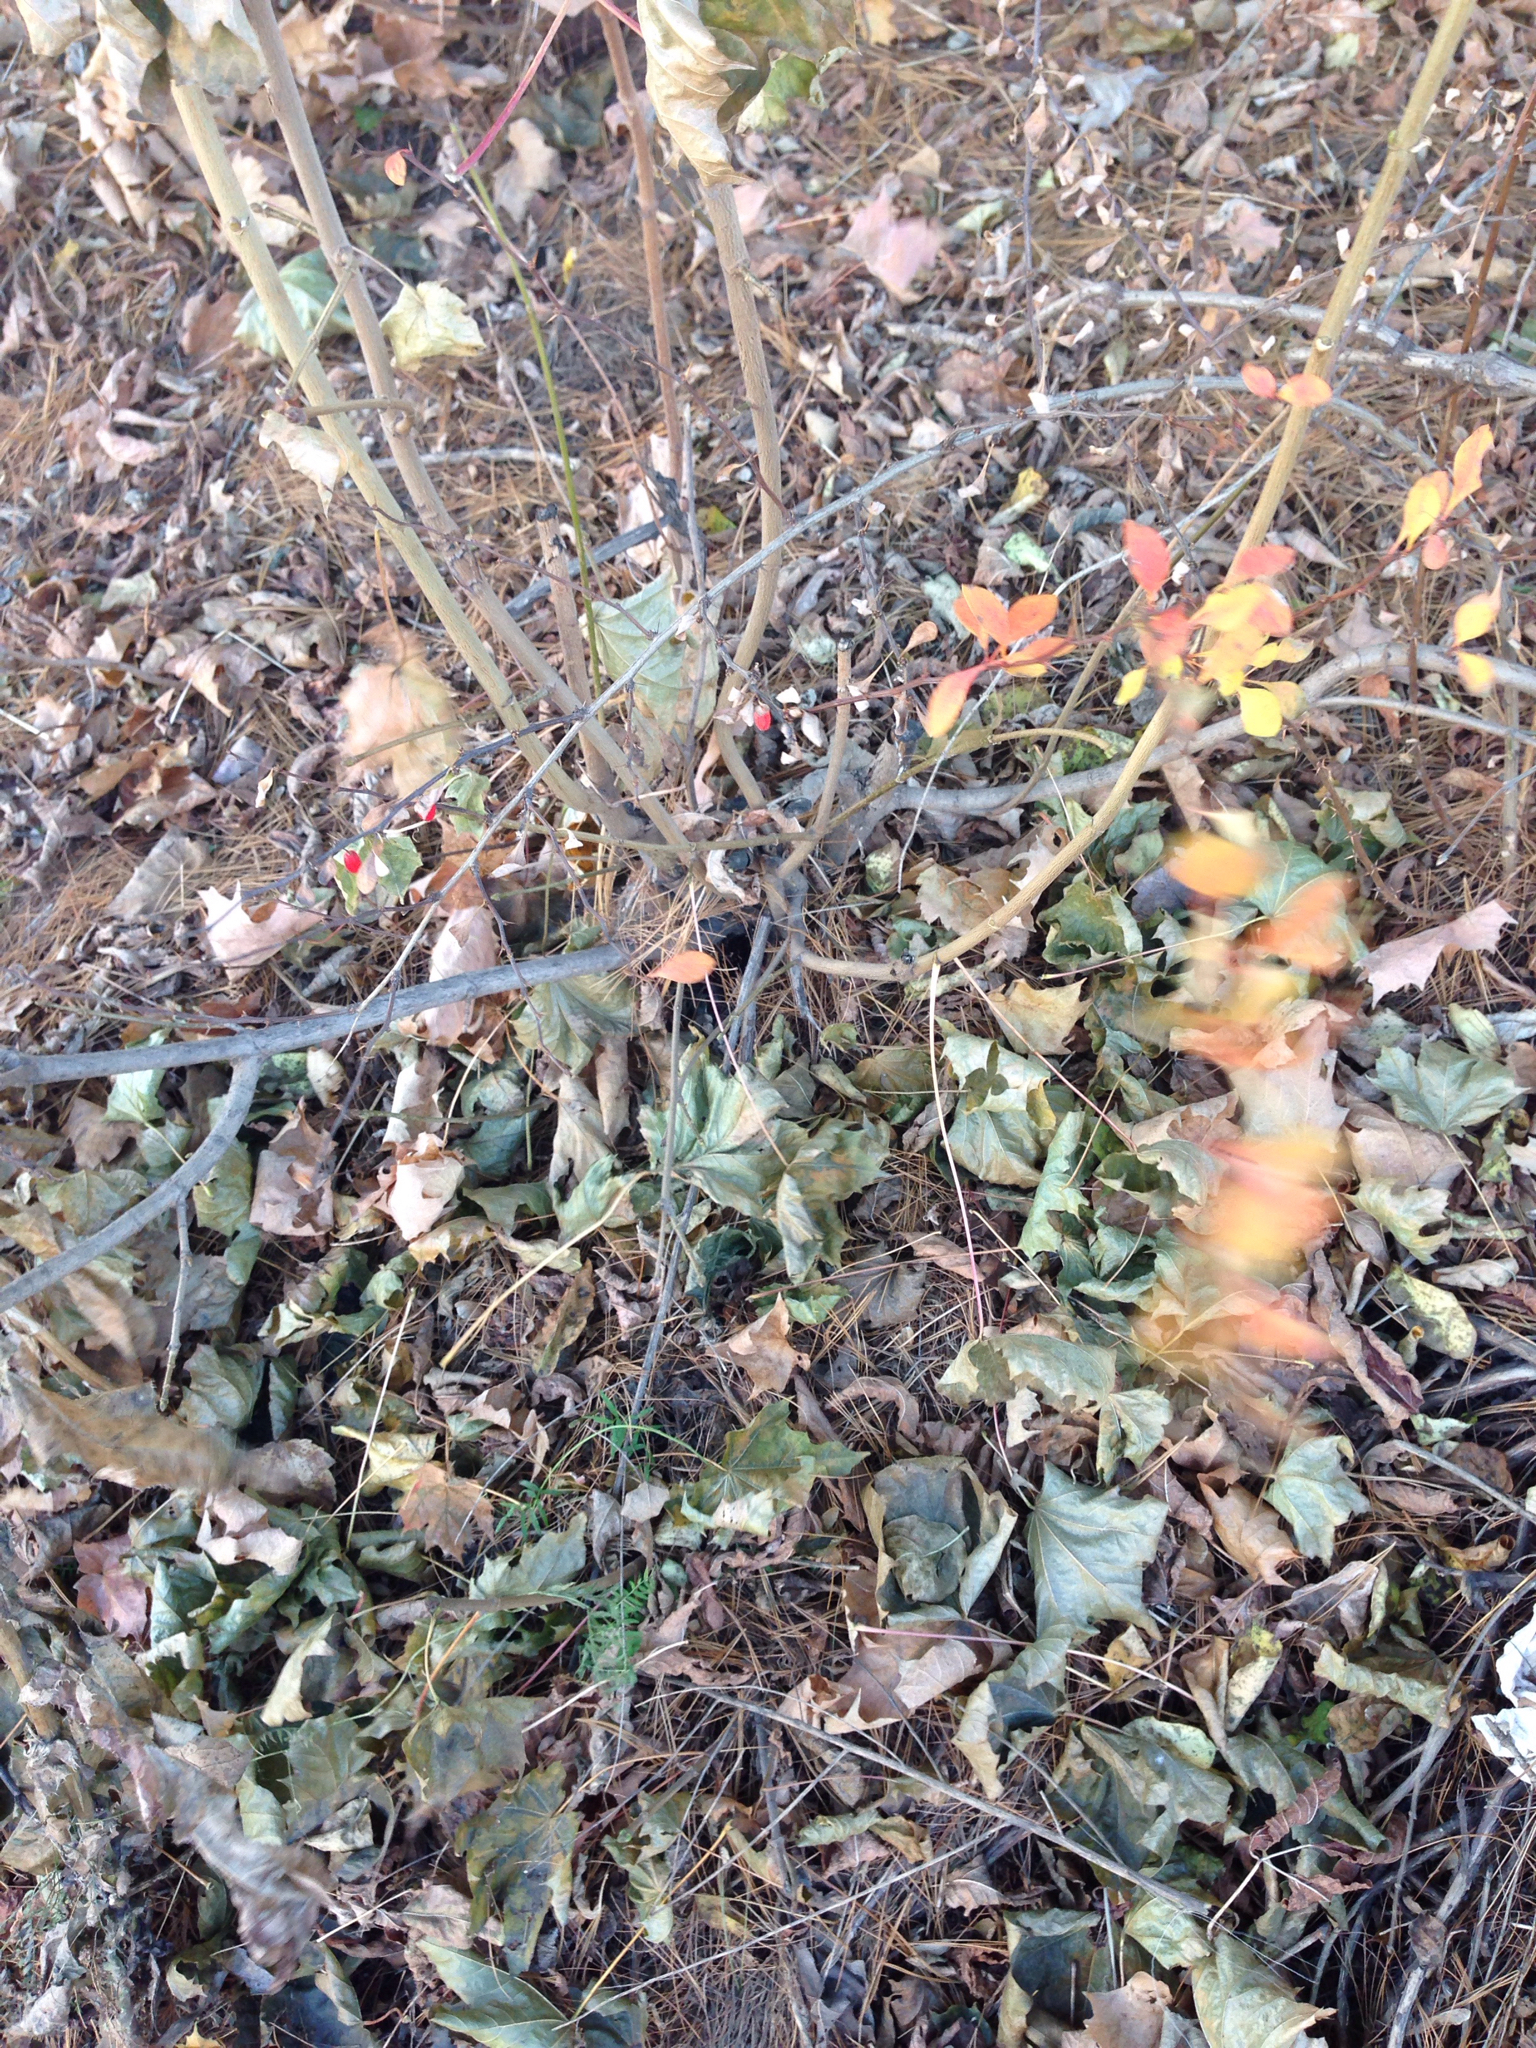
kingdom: Plantae
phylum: Tracheophyta
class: Magnoliopsida
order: Ranunculales
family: Berberidaceae
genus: Berberis
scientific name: Berberis thunbergii
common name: Japanese barberry
